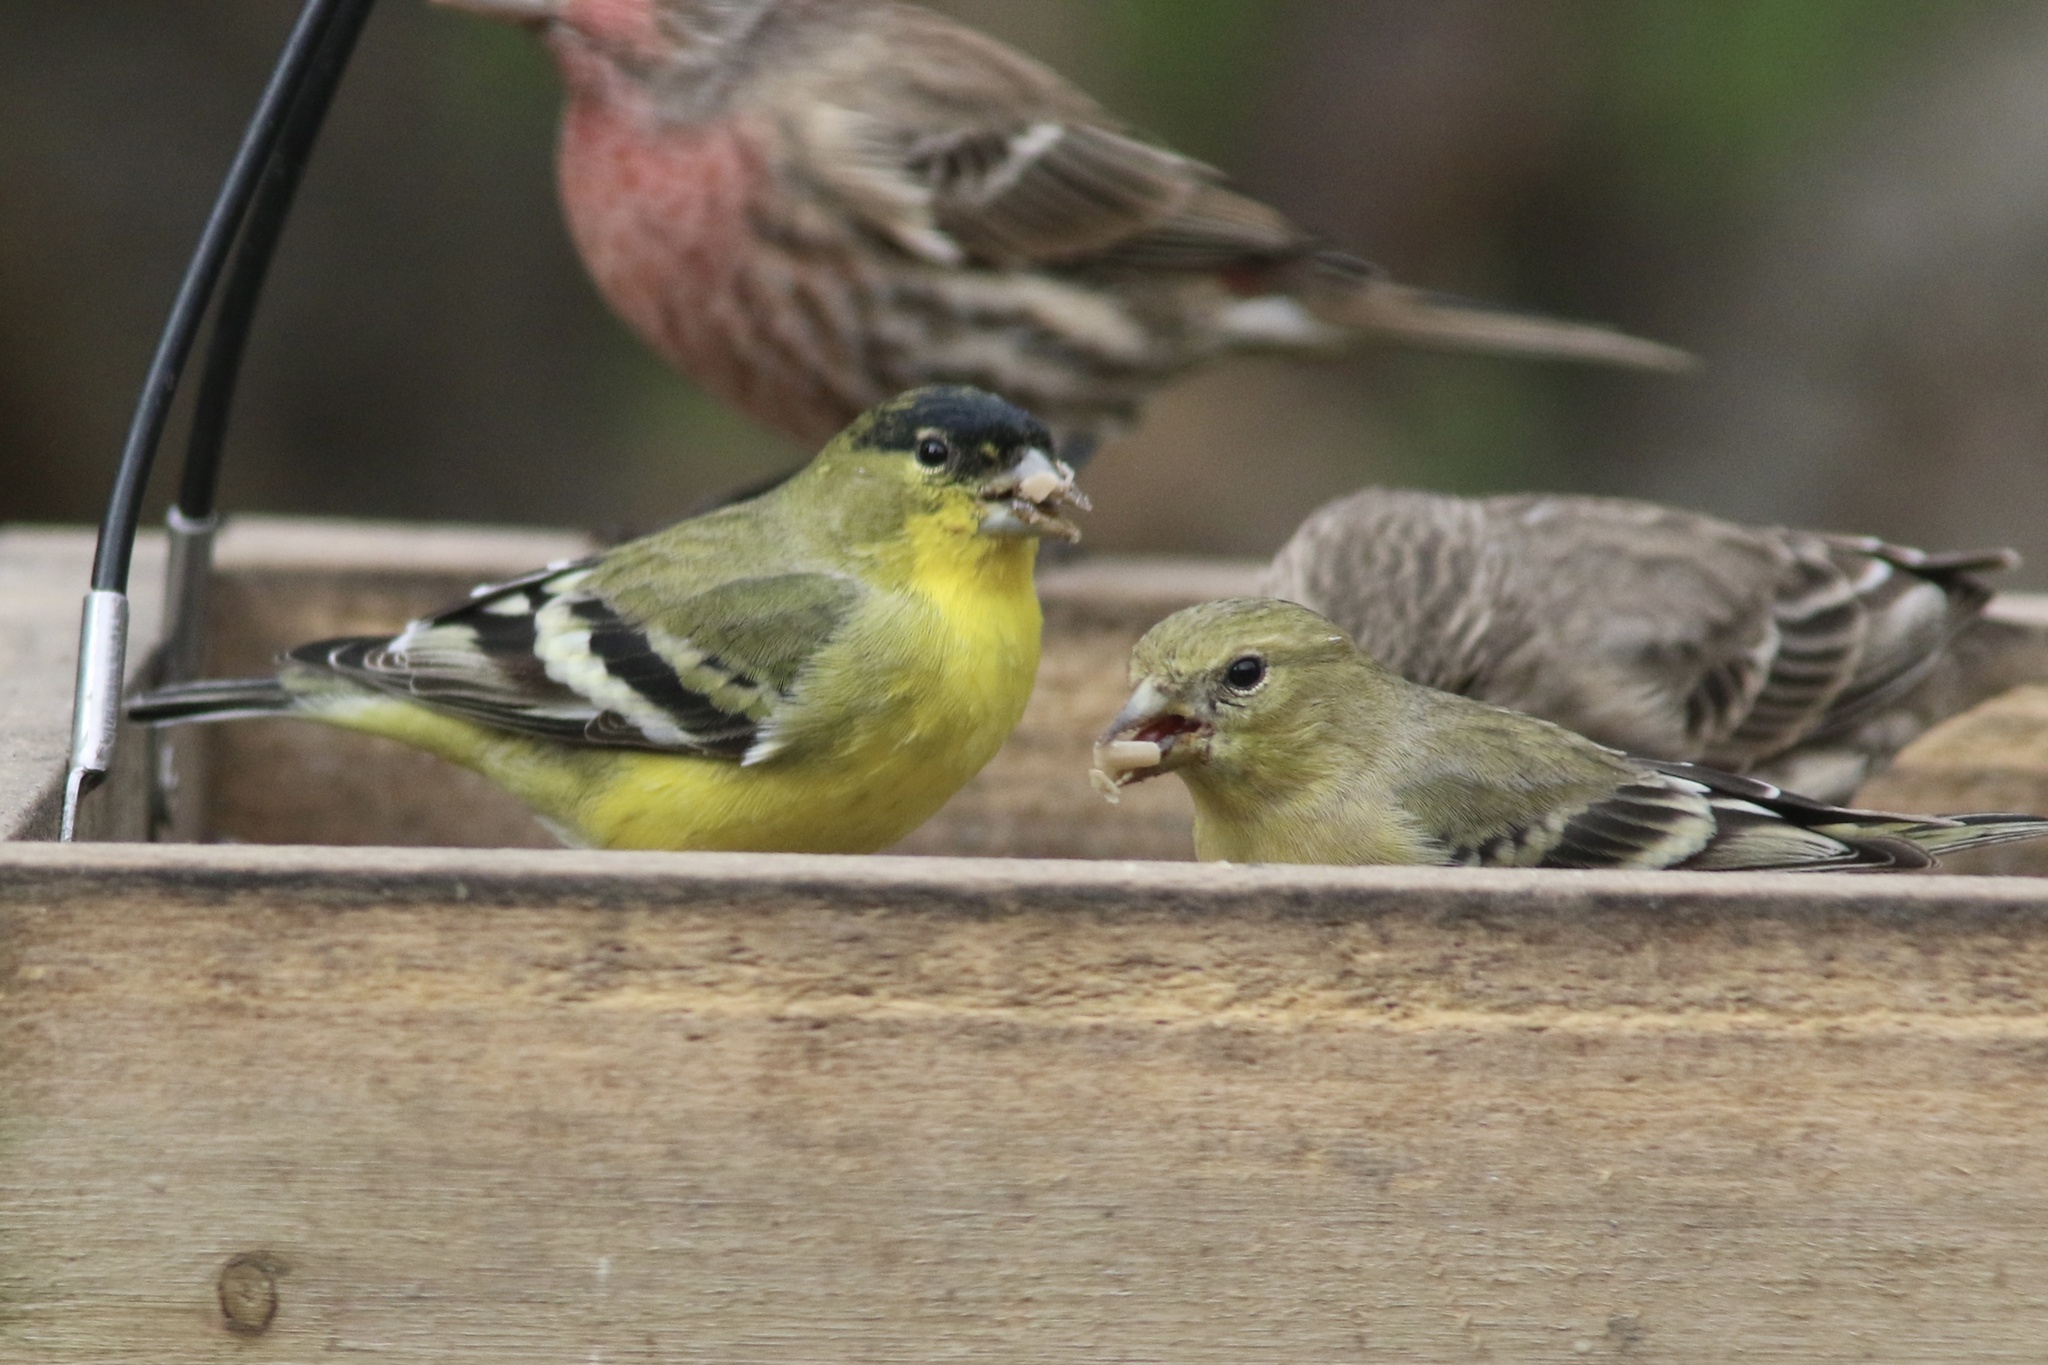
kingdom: Animalia
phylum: Chordata
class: Aves
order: Passeriformes
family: Fringillidae
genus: Spinus
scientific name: Spinus psaltria
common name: Lesser goldfinch
